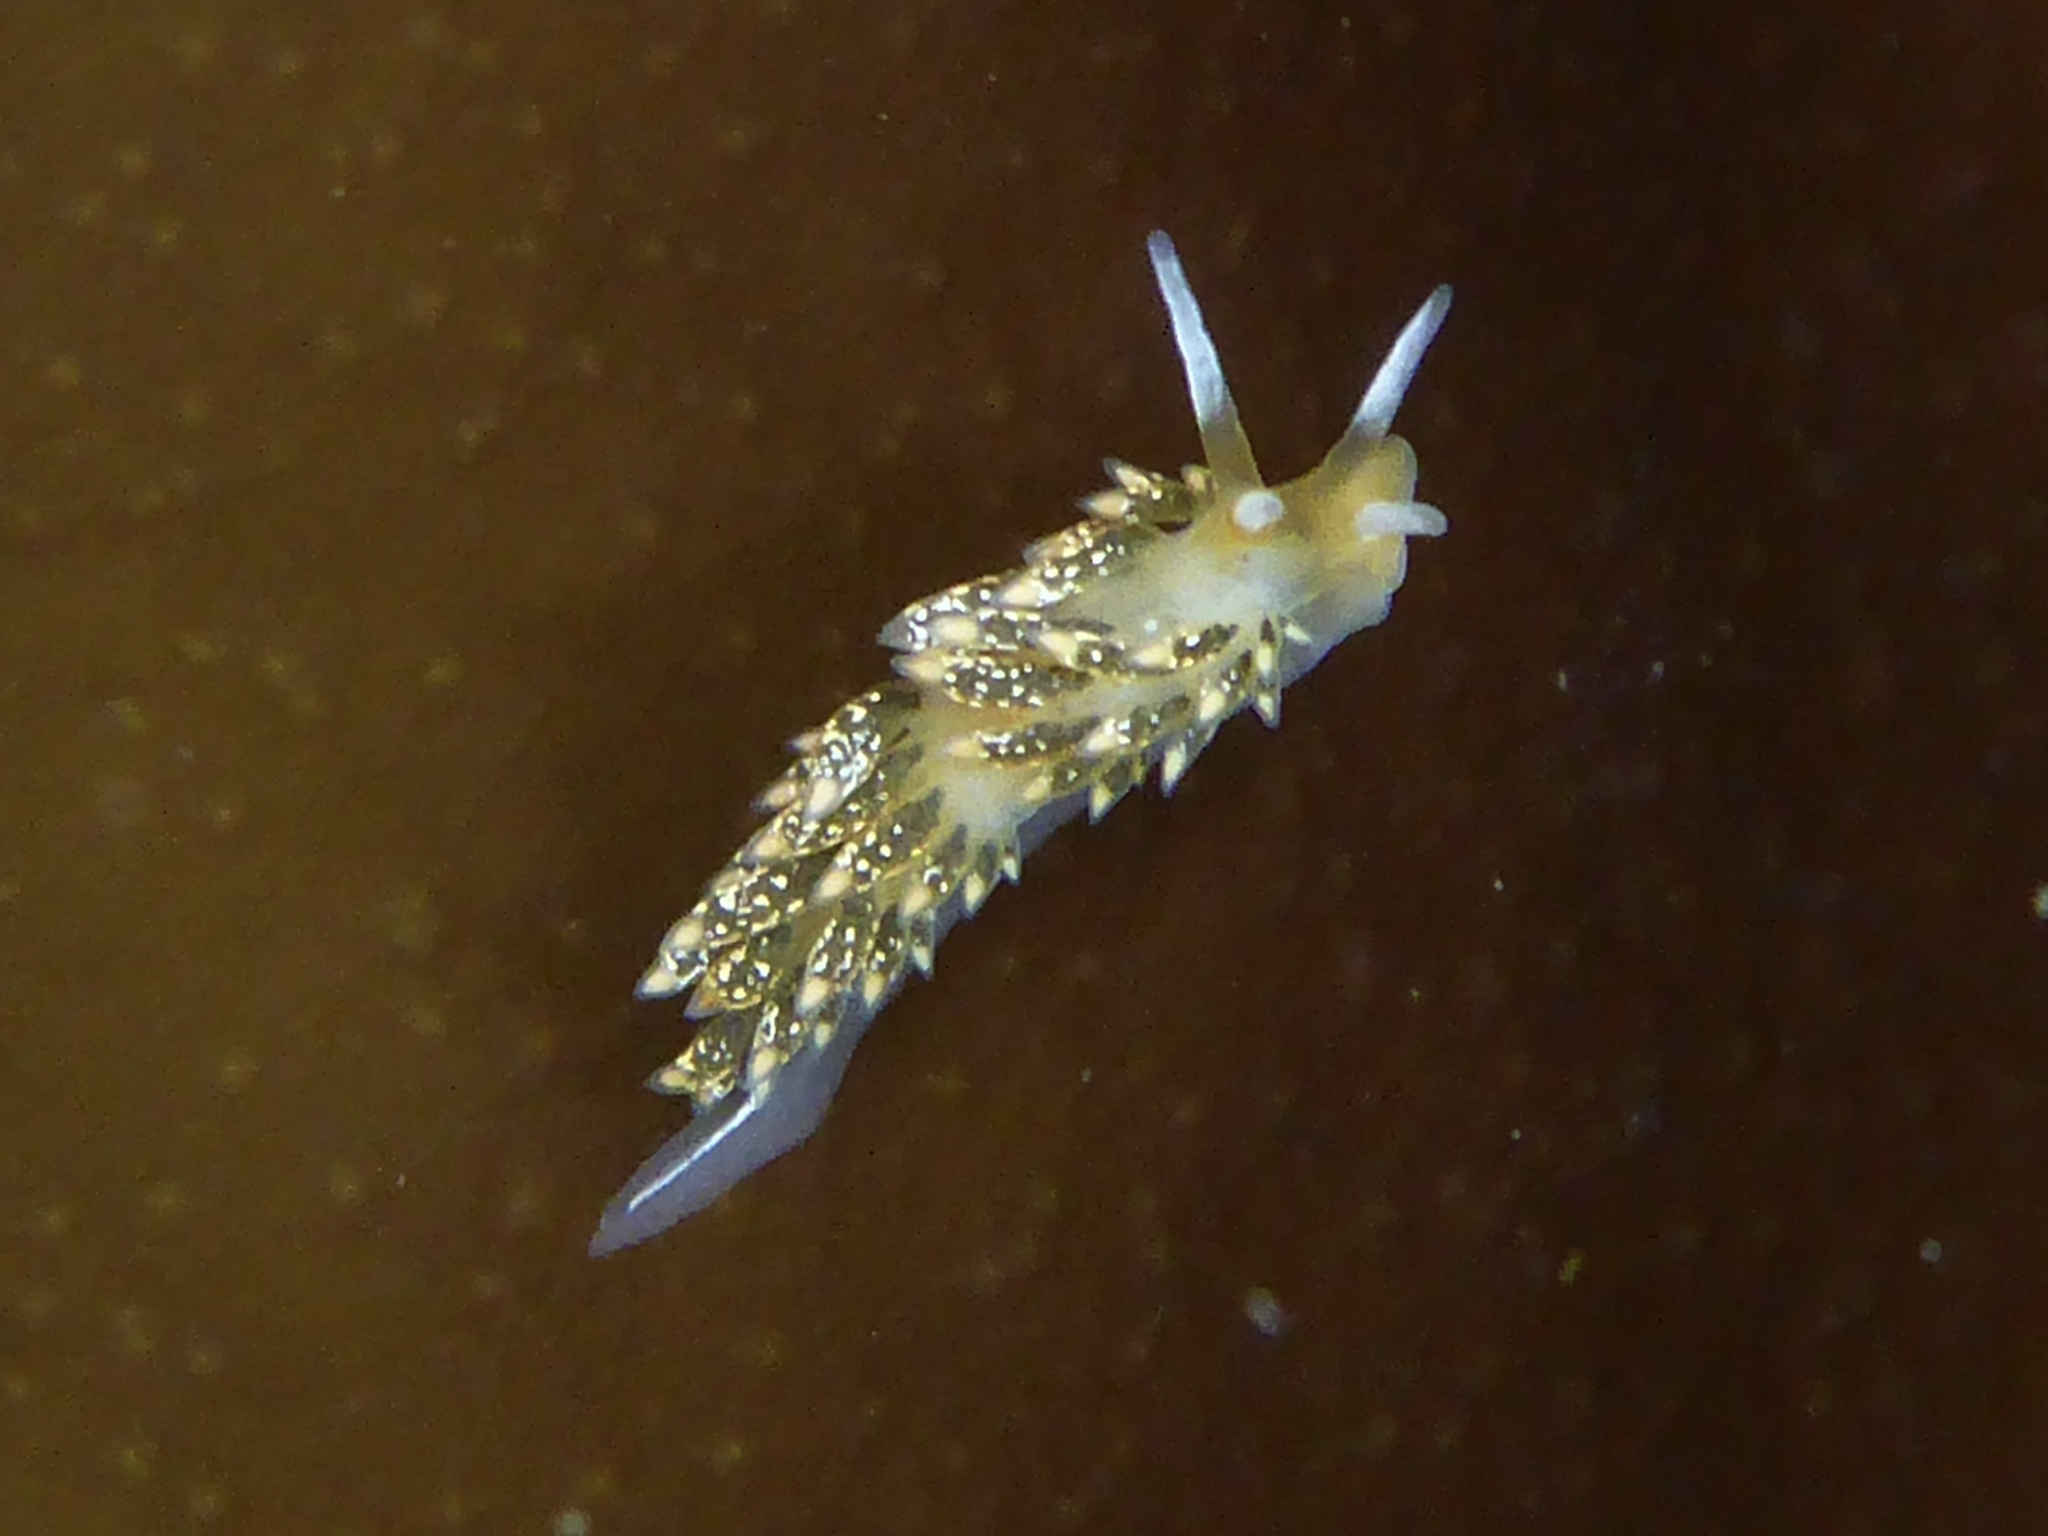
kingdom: Animalia
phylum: Mollusca
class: Gastropoda
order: Nudibranchia
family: Trinchesiidae
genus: Diaphoreolis
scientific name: Diaphoreolis flavovulta
